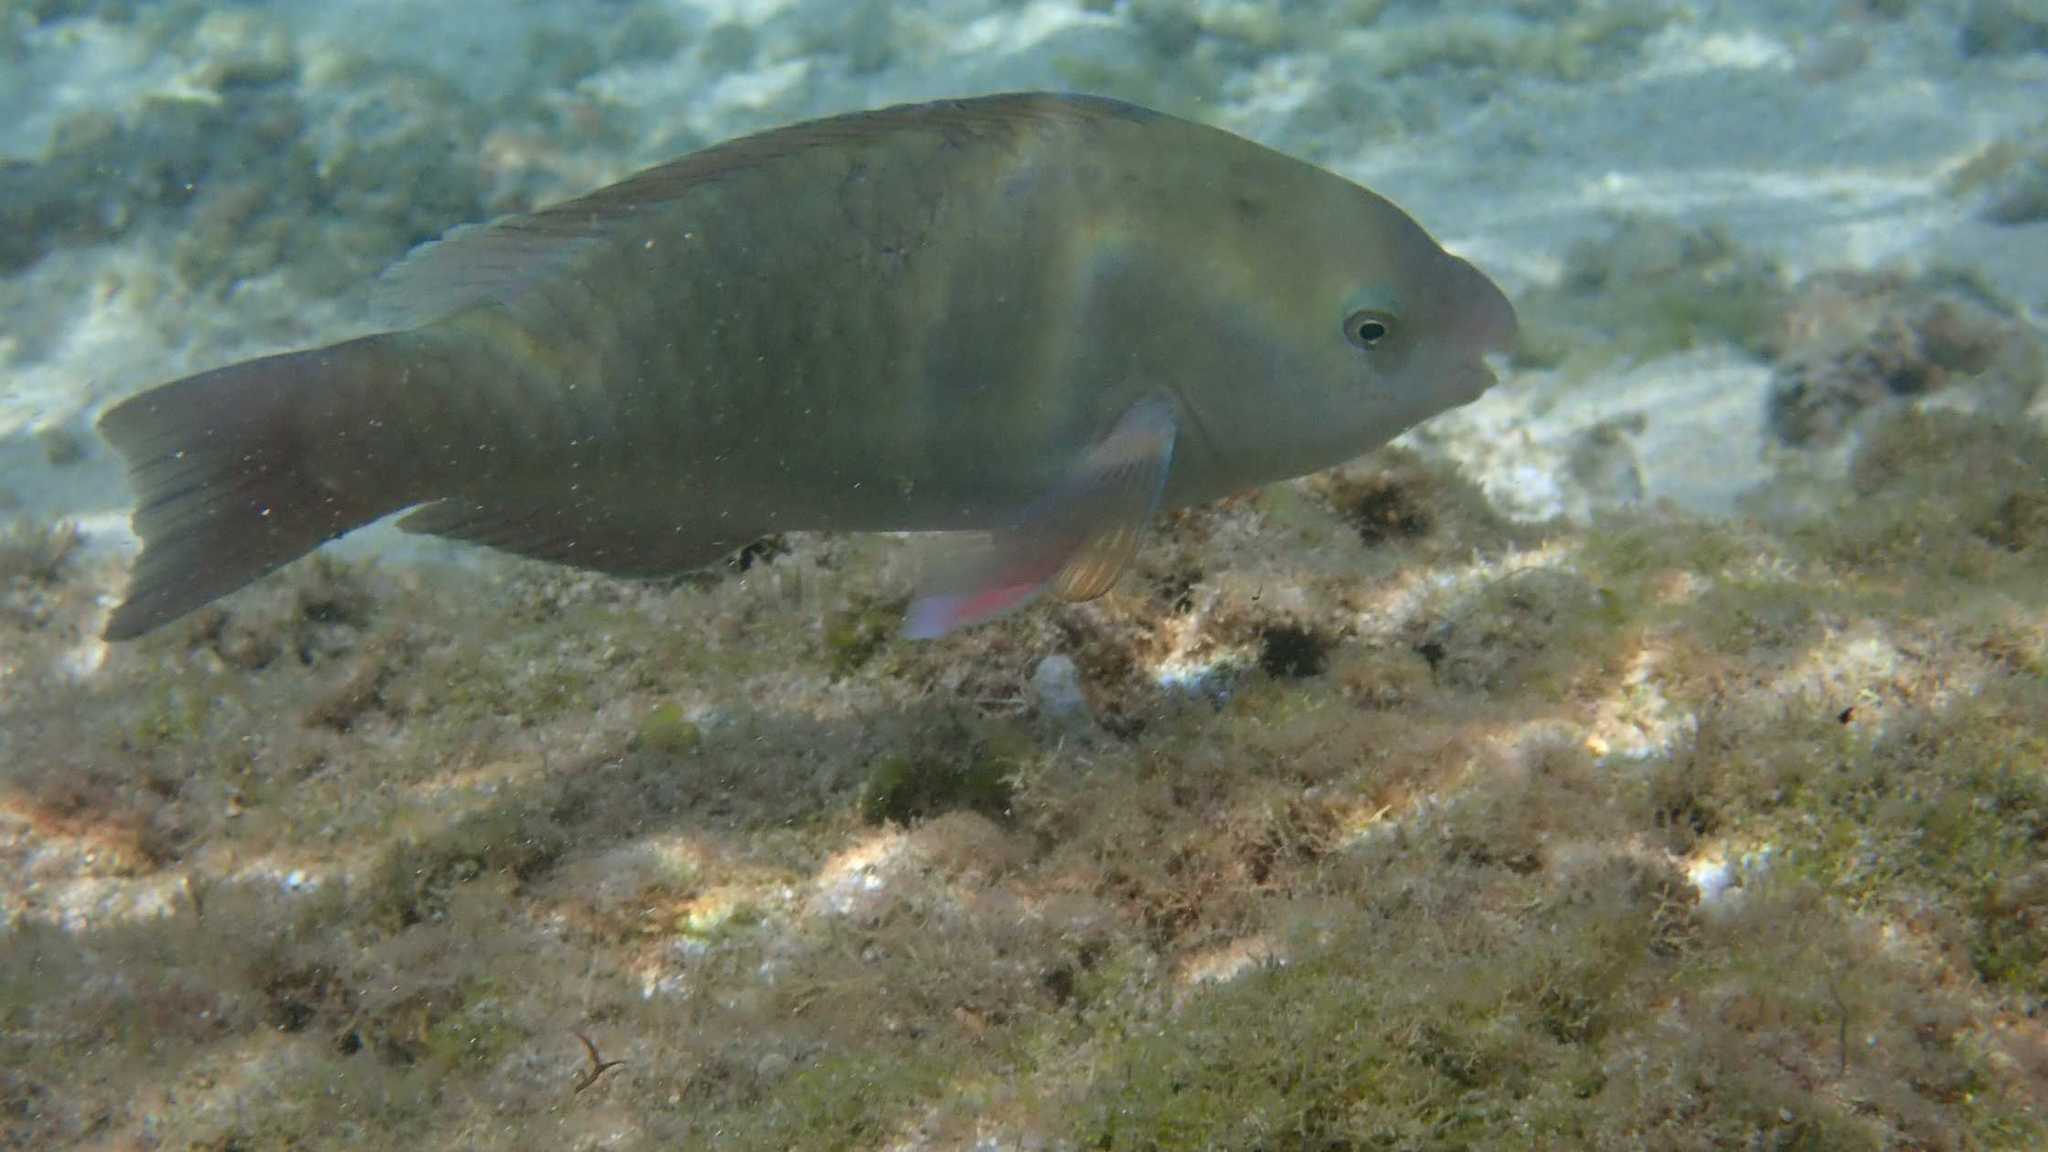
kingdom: Animalia
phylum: Chordata
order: Perciformes
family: Scaridae
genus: Scarus
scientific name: Scarus psittacus
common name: Palenose parrotfish
